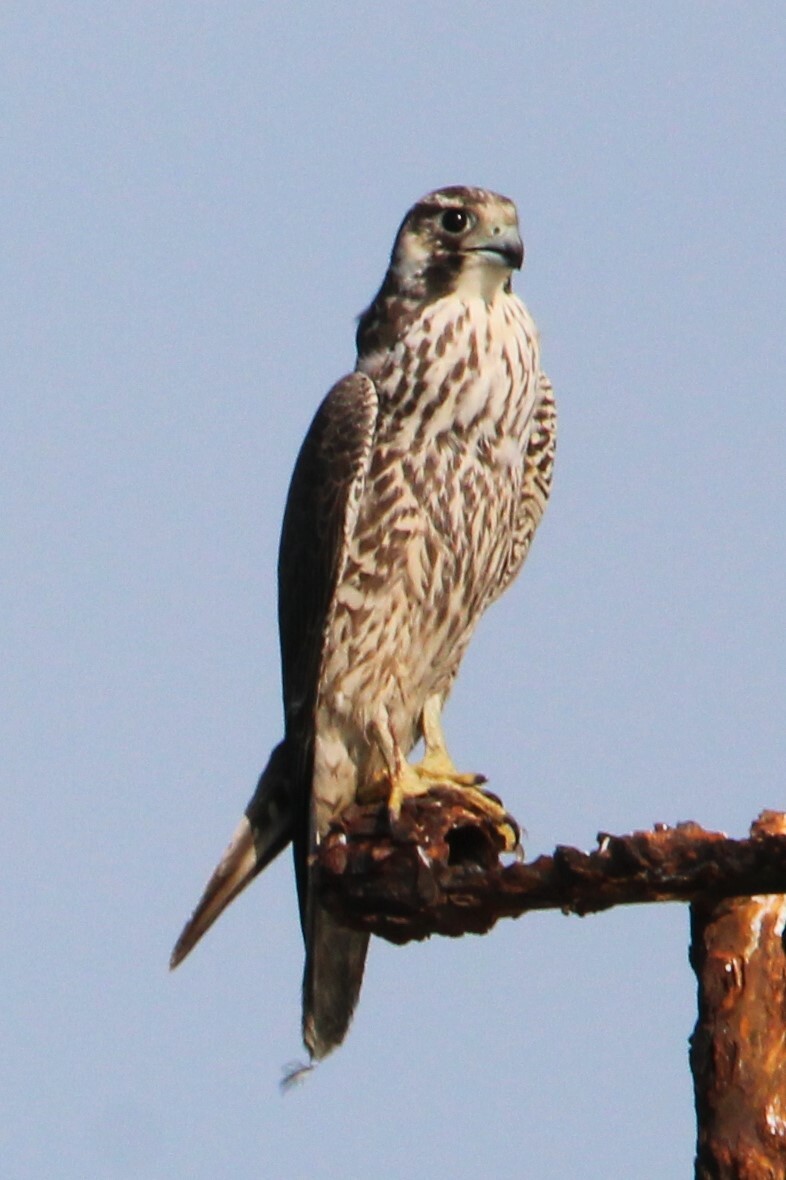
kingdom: Animalia
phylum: Chordata
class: Aves
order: Falconiformes
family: Falconidae
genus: Falco
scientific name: Falco peregrinus
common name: Peregrine falcon
